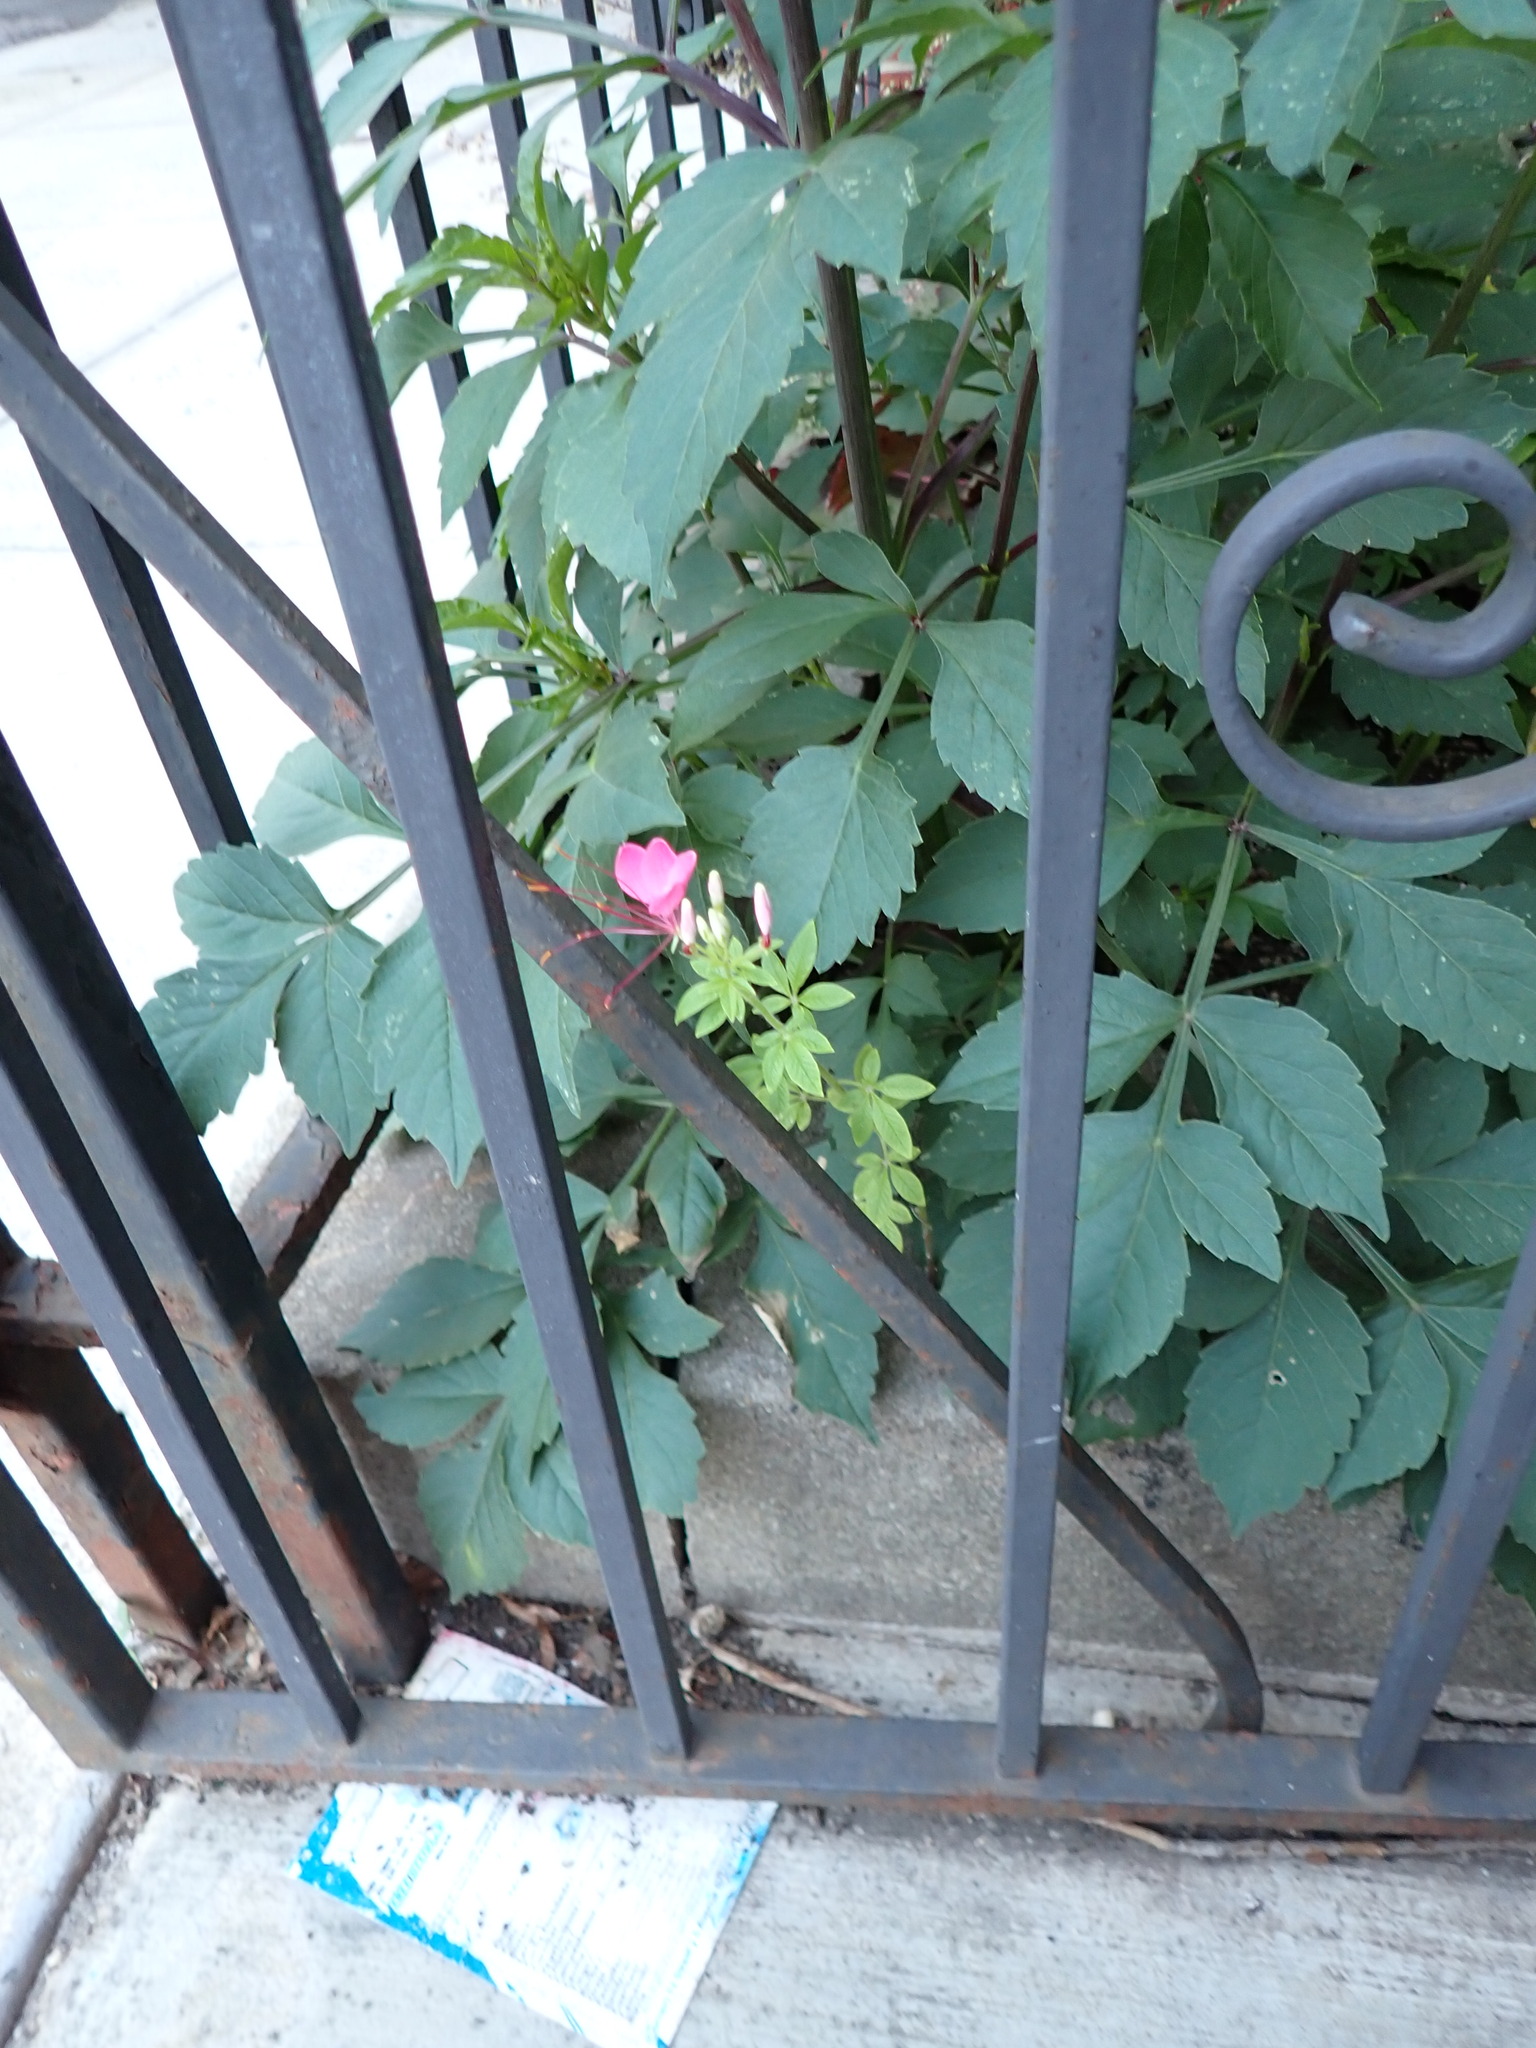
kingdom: Plantae
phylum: Tracheophyta
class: Magnoliopsida
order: Brassicales
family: Cleomaceae
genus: Tarenaya
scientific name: Tarenaya houtteana
